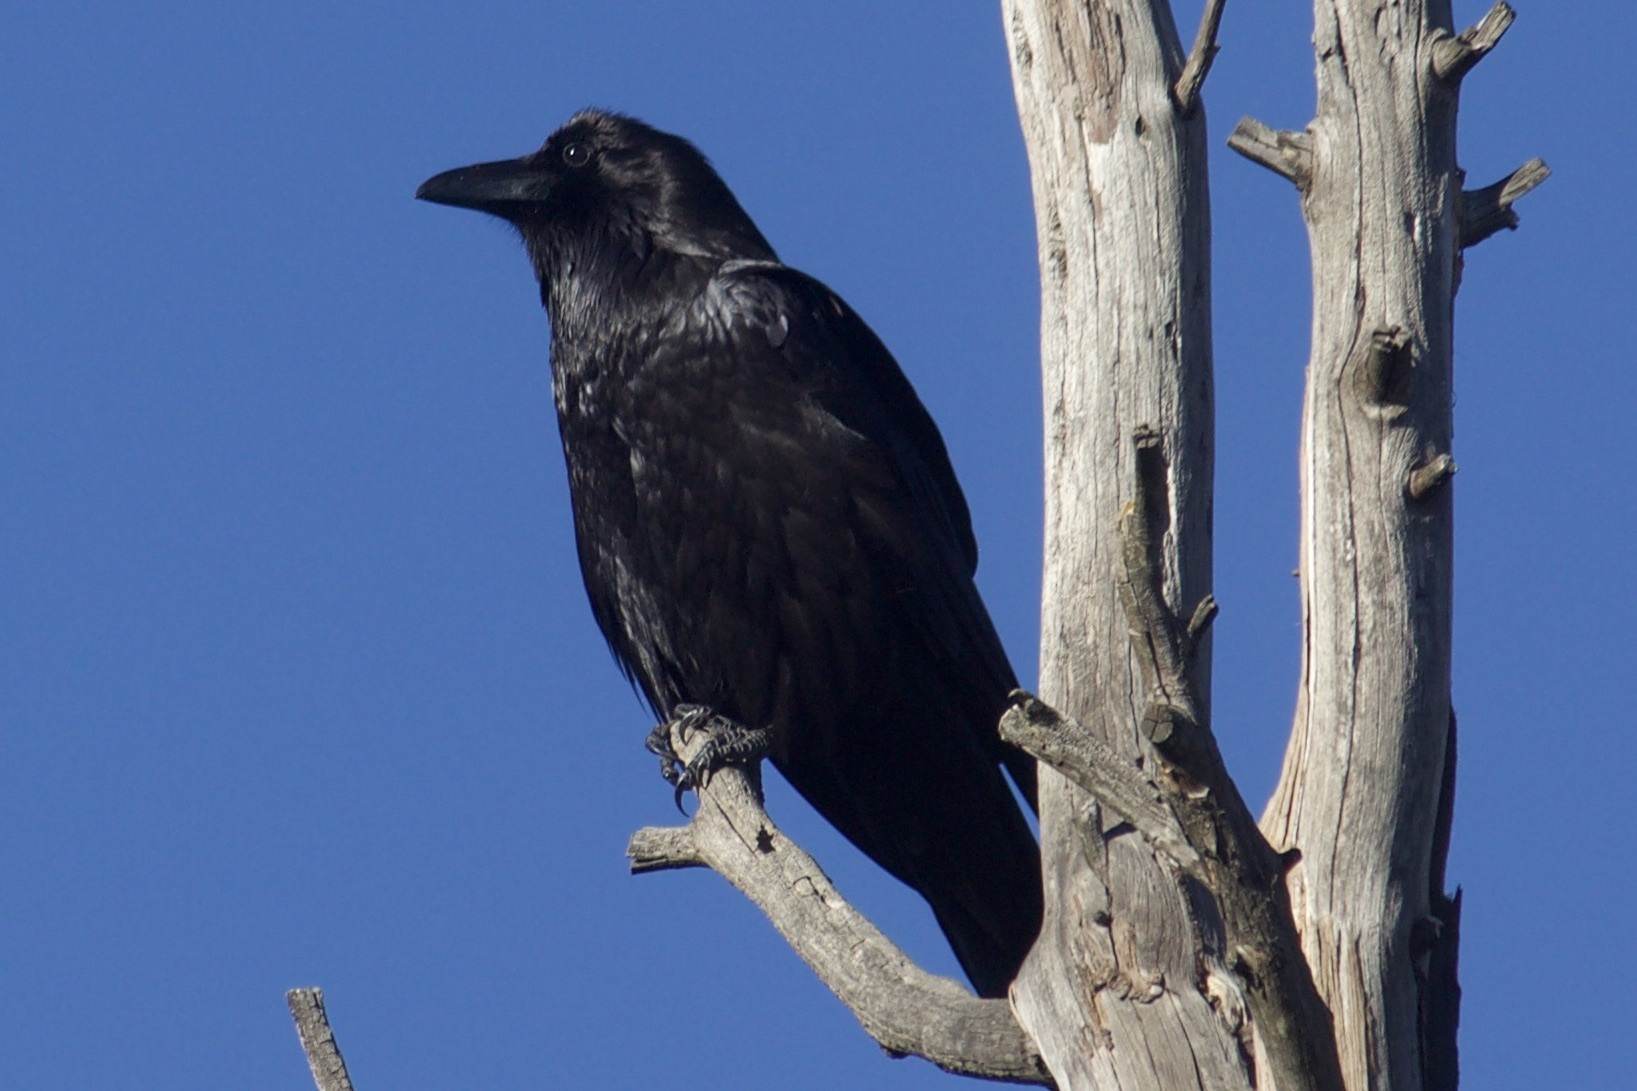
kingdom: Animalia
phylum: Chordata
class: Aves
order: Passeriformes
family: Corvidae
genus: Corvus
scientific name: Corvus corax
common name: Common raven
